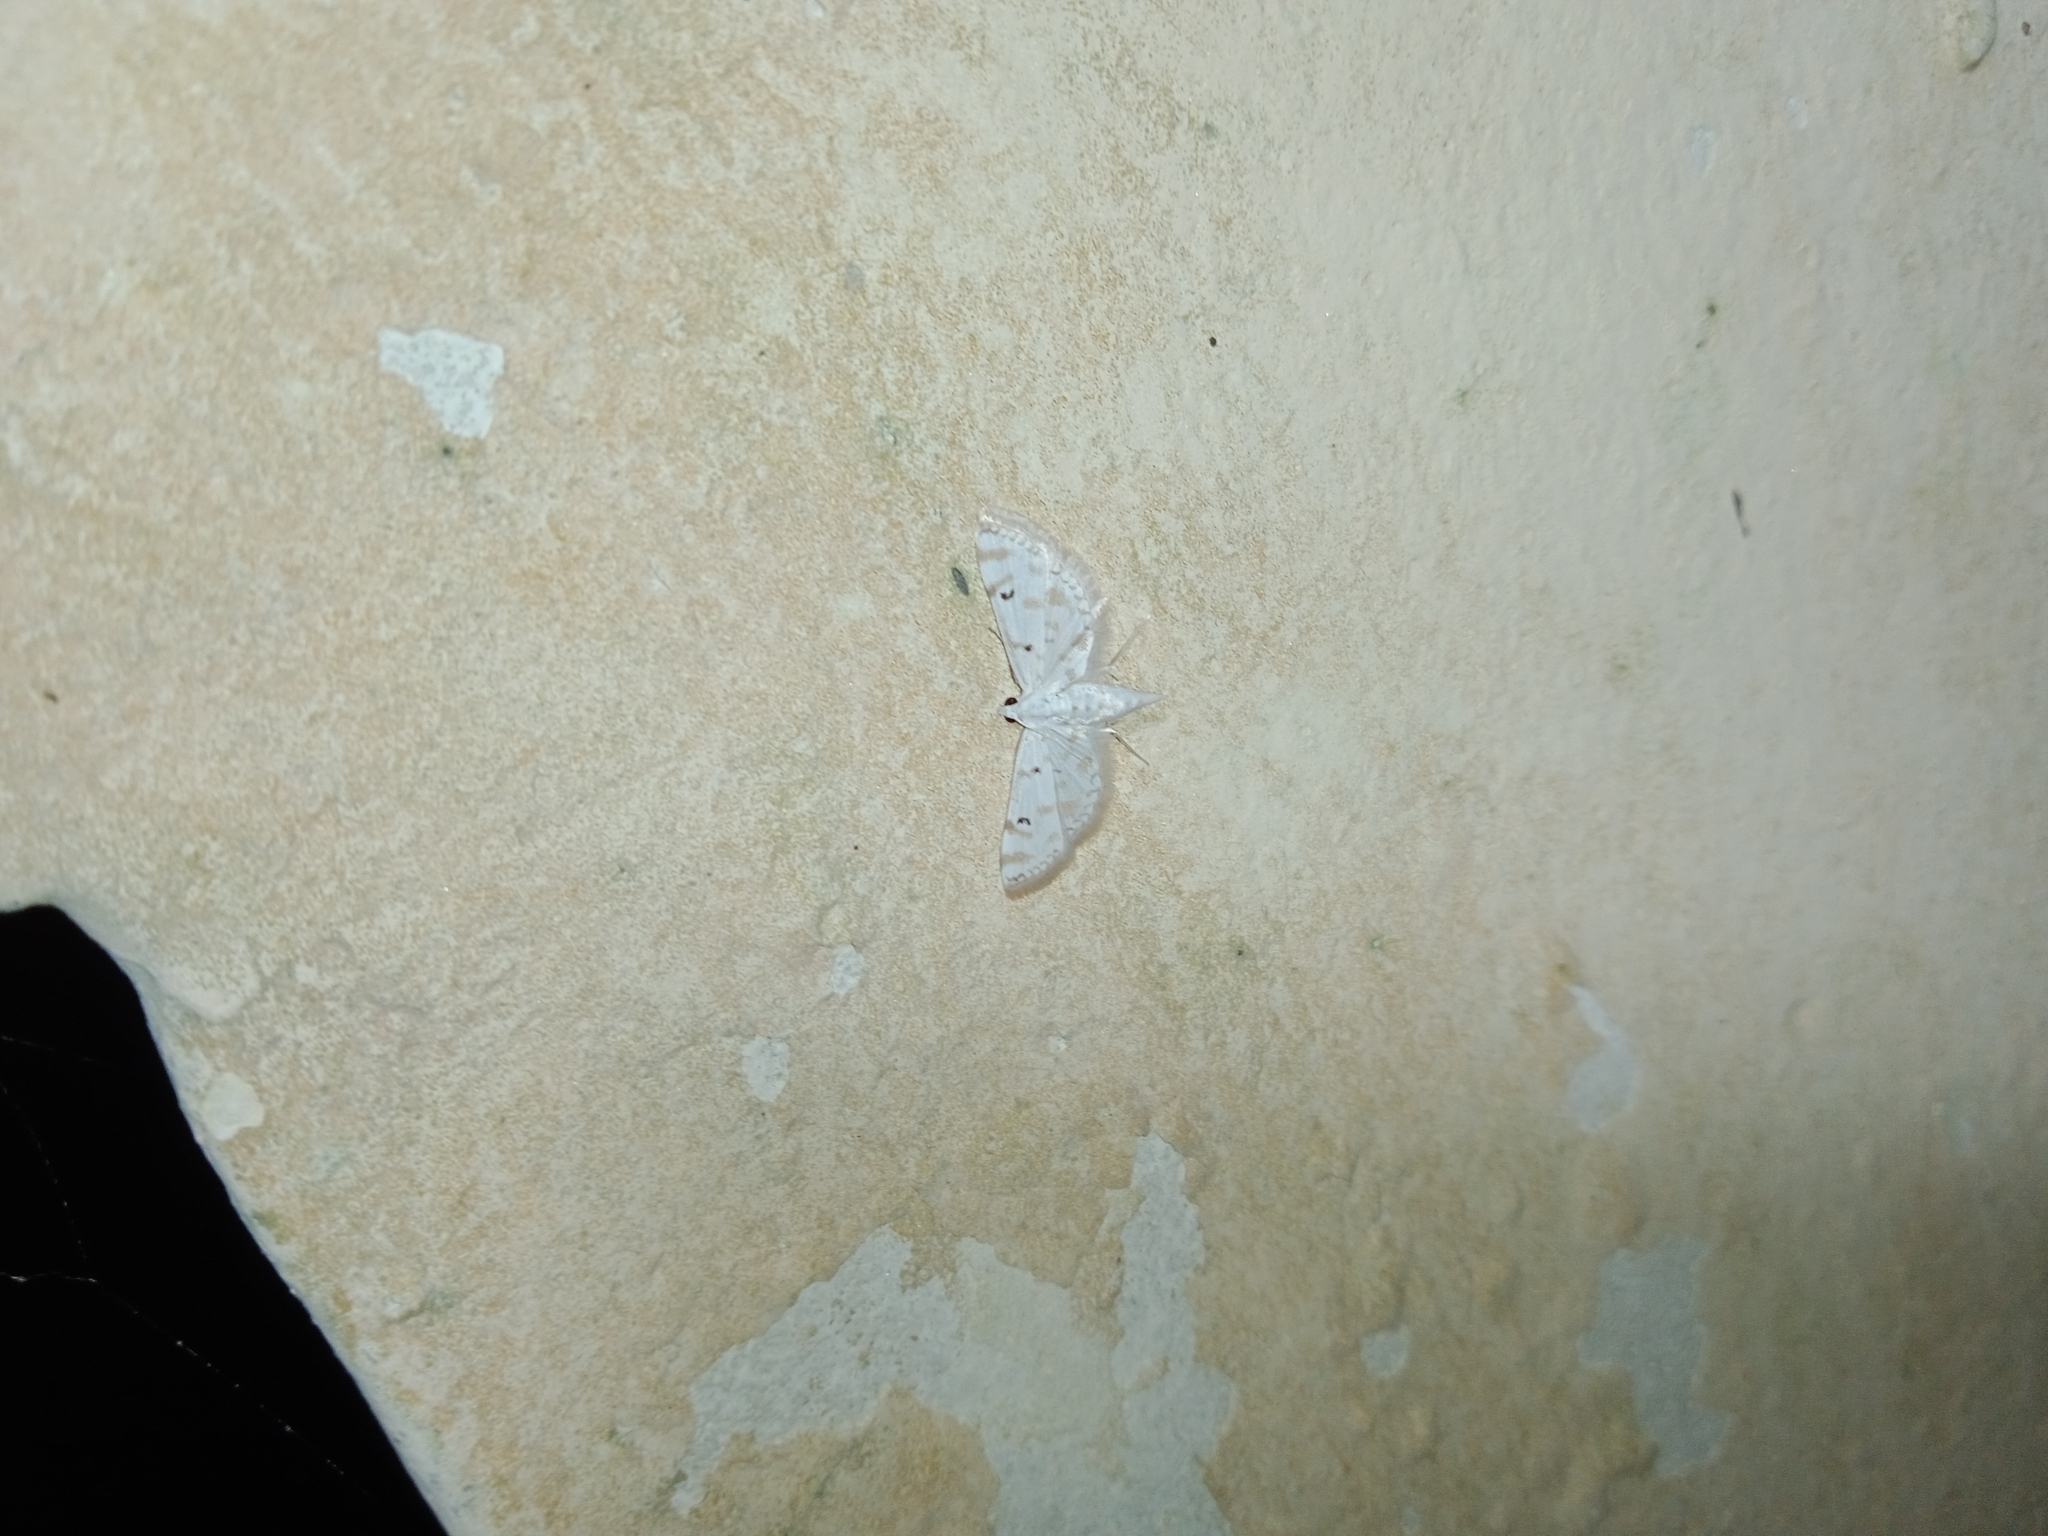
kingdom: Animalia
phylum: Arthropoda
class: Insecta
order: Lepidoptera
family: Crambidae
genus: Parapoynx
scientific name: Parapoynx stagnalis
